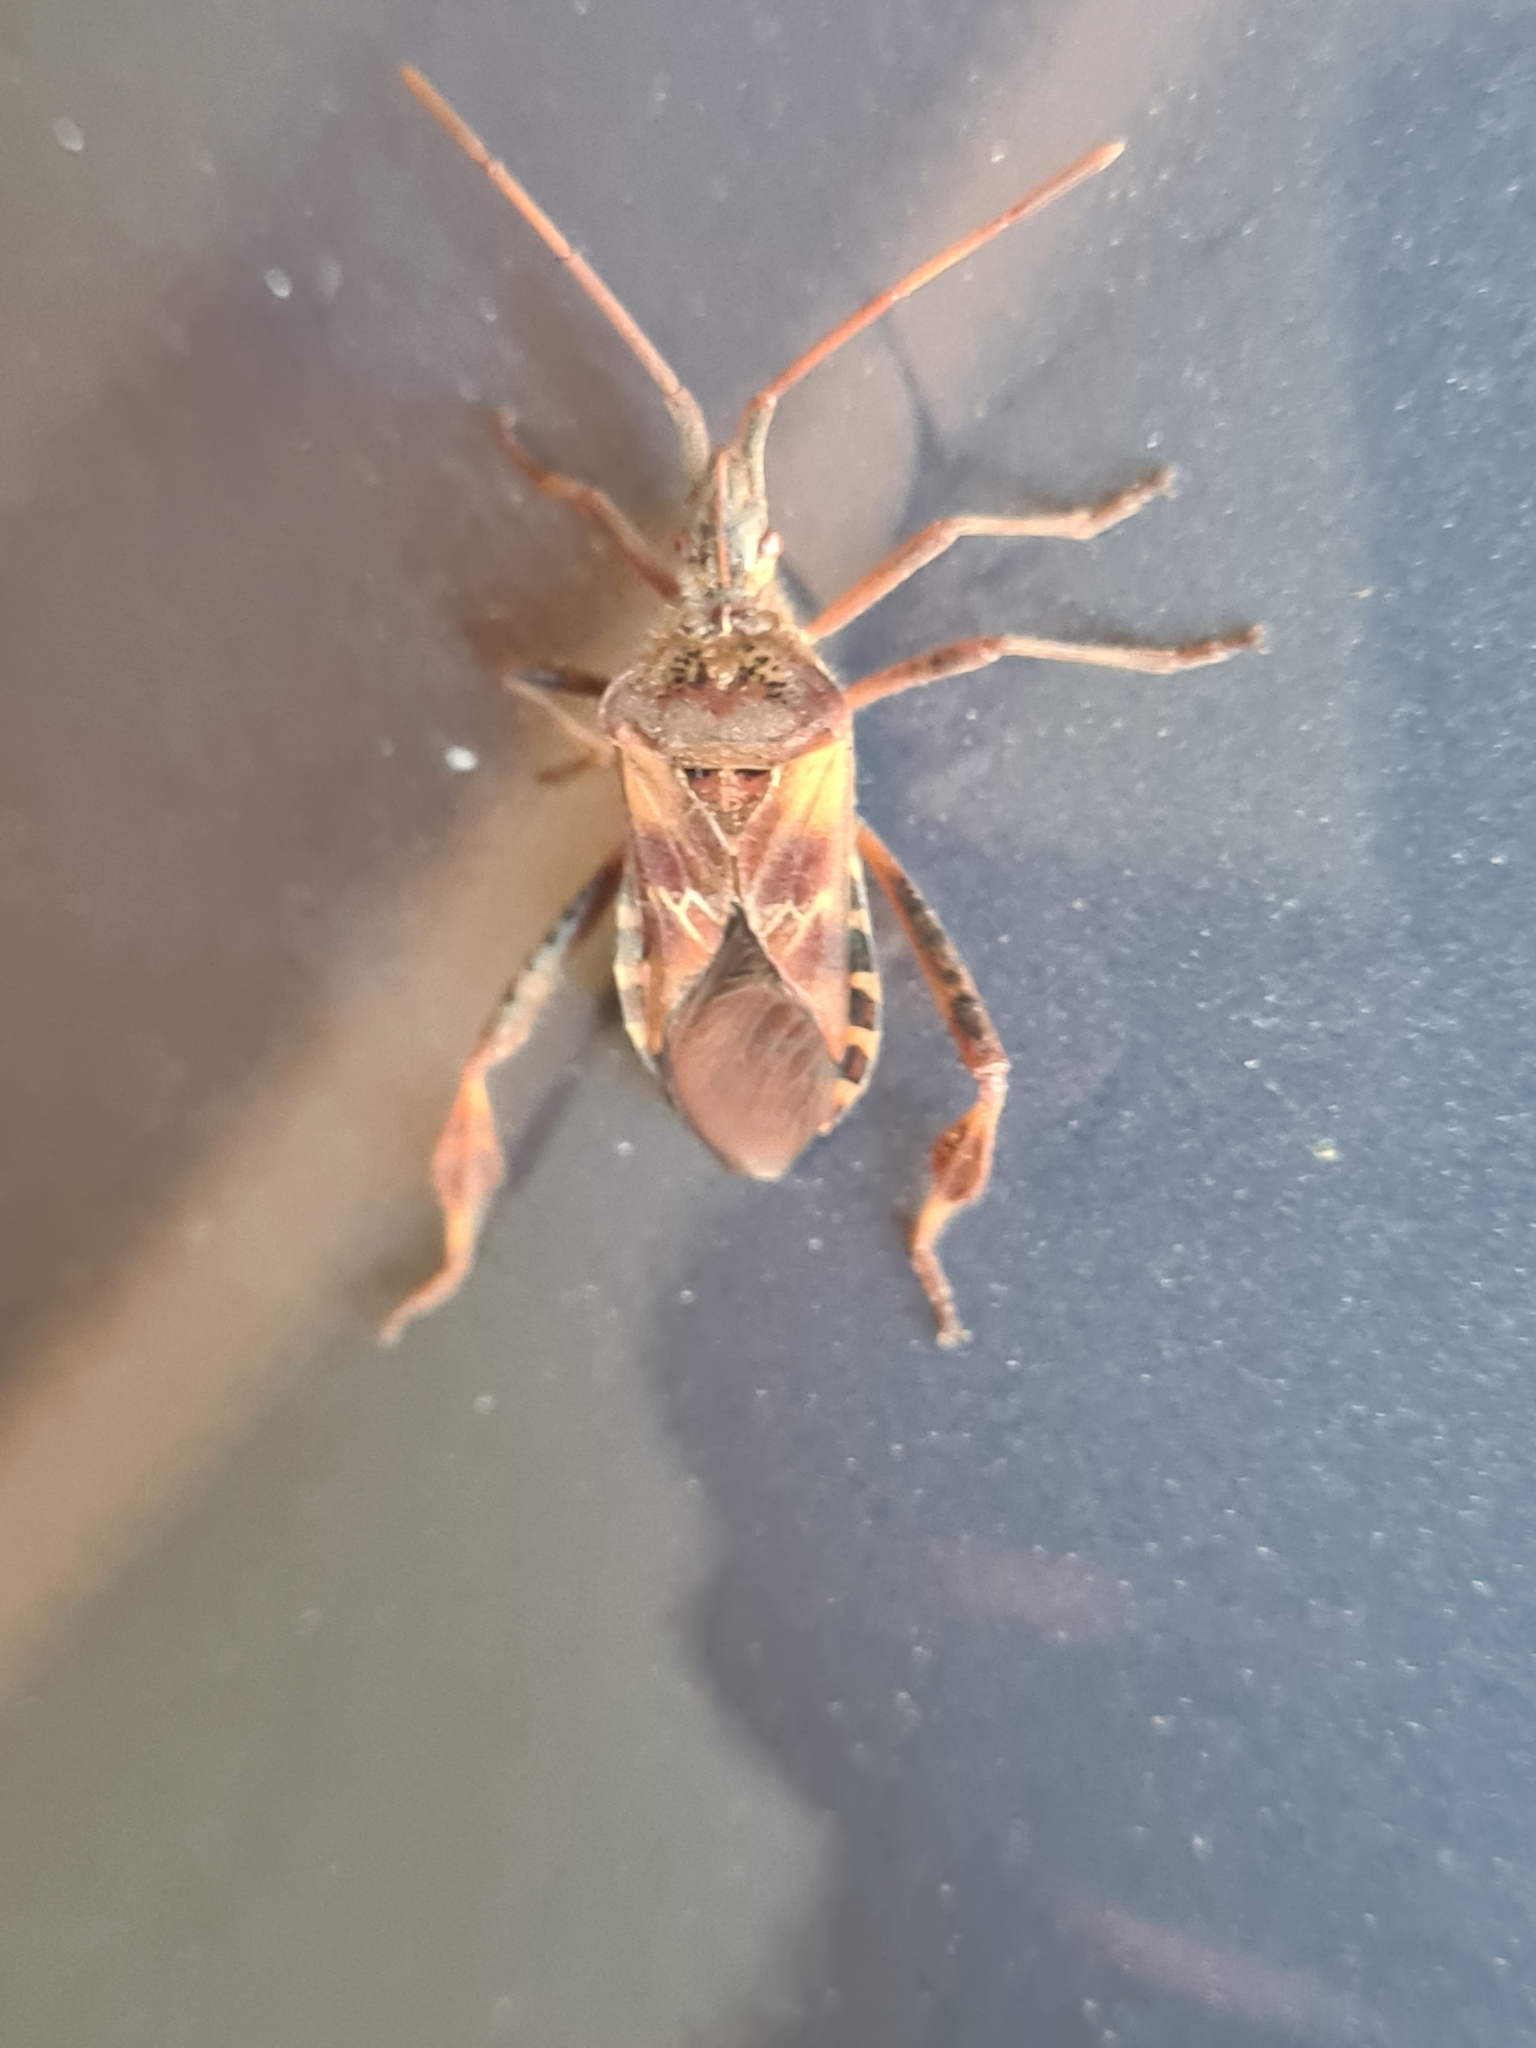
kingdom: Animalia
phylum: Arthropoda
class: Insecta
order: Hemiptera
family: Coreidae
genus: Leptoglossus
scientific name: Leptoglossus occidentalis
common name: Western conifer-seed bug
